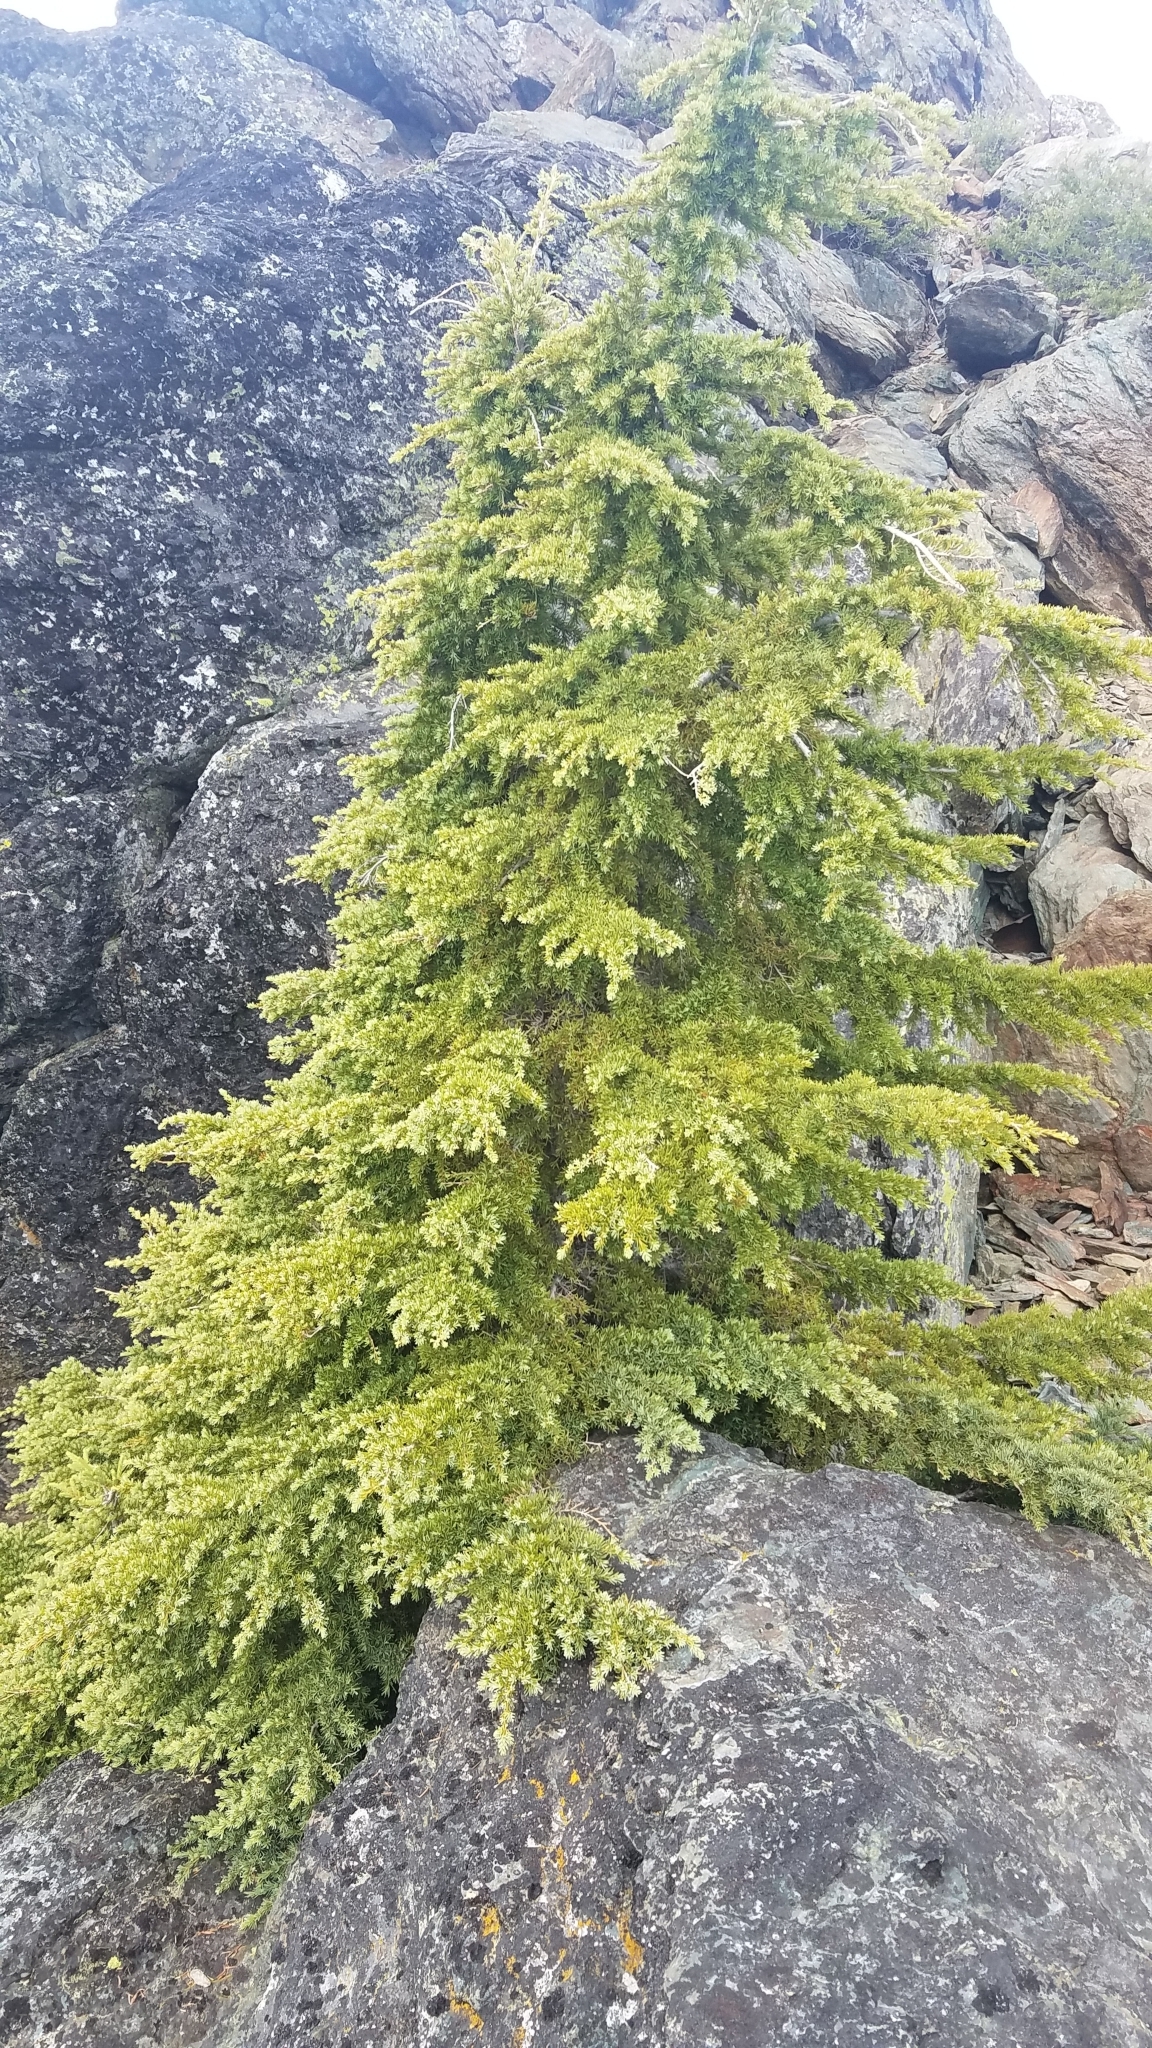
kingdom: Plantae
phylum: Tracheophyta
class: Pinopsida
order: Pinales
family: Pinaceae
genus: Tsuga
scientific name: Tsuga mertensiana
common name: Mountain hemlock
